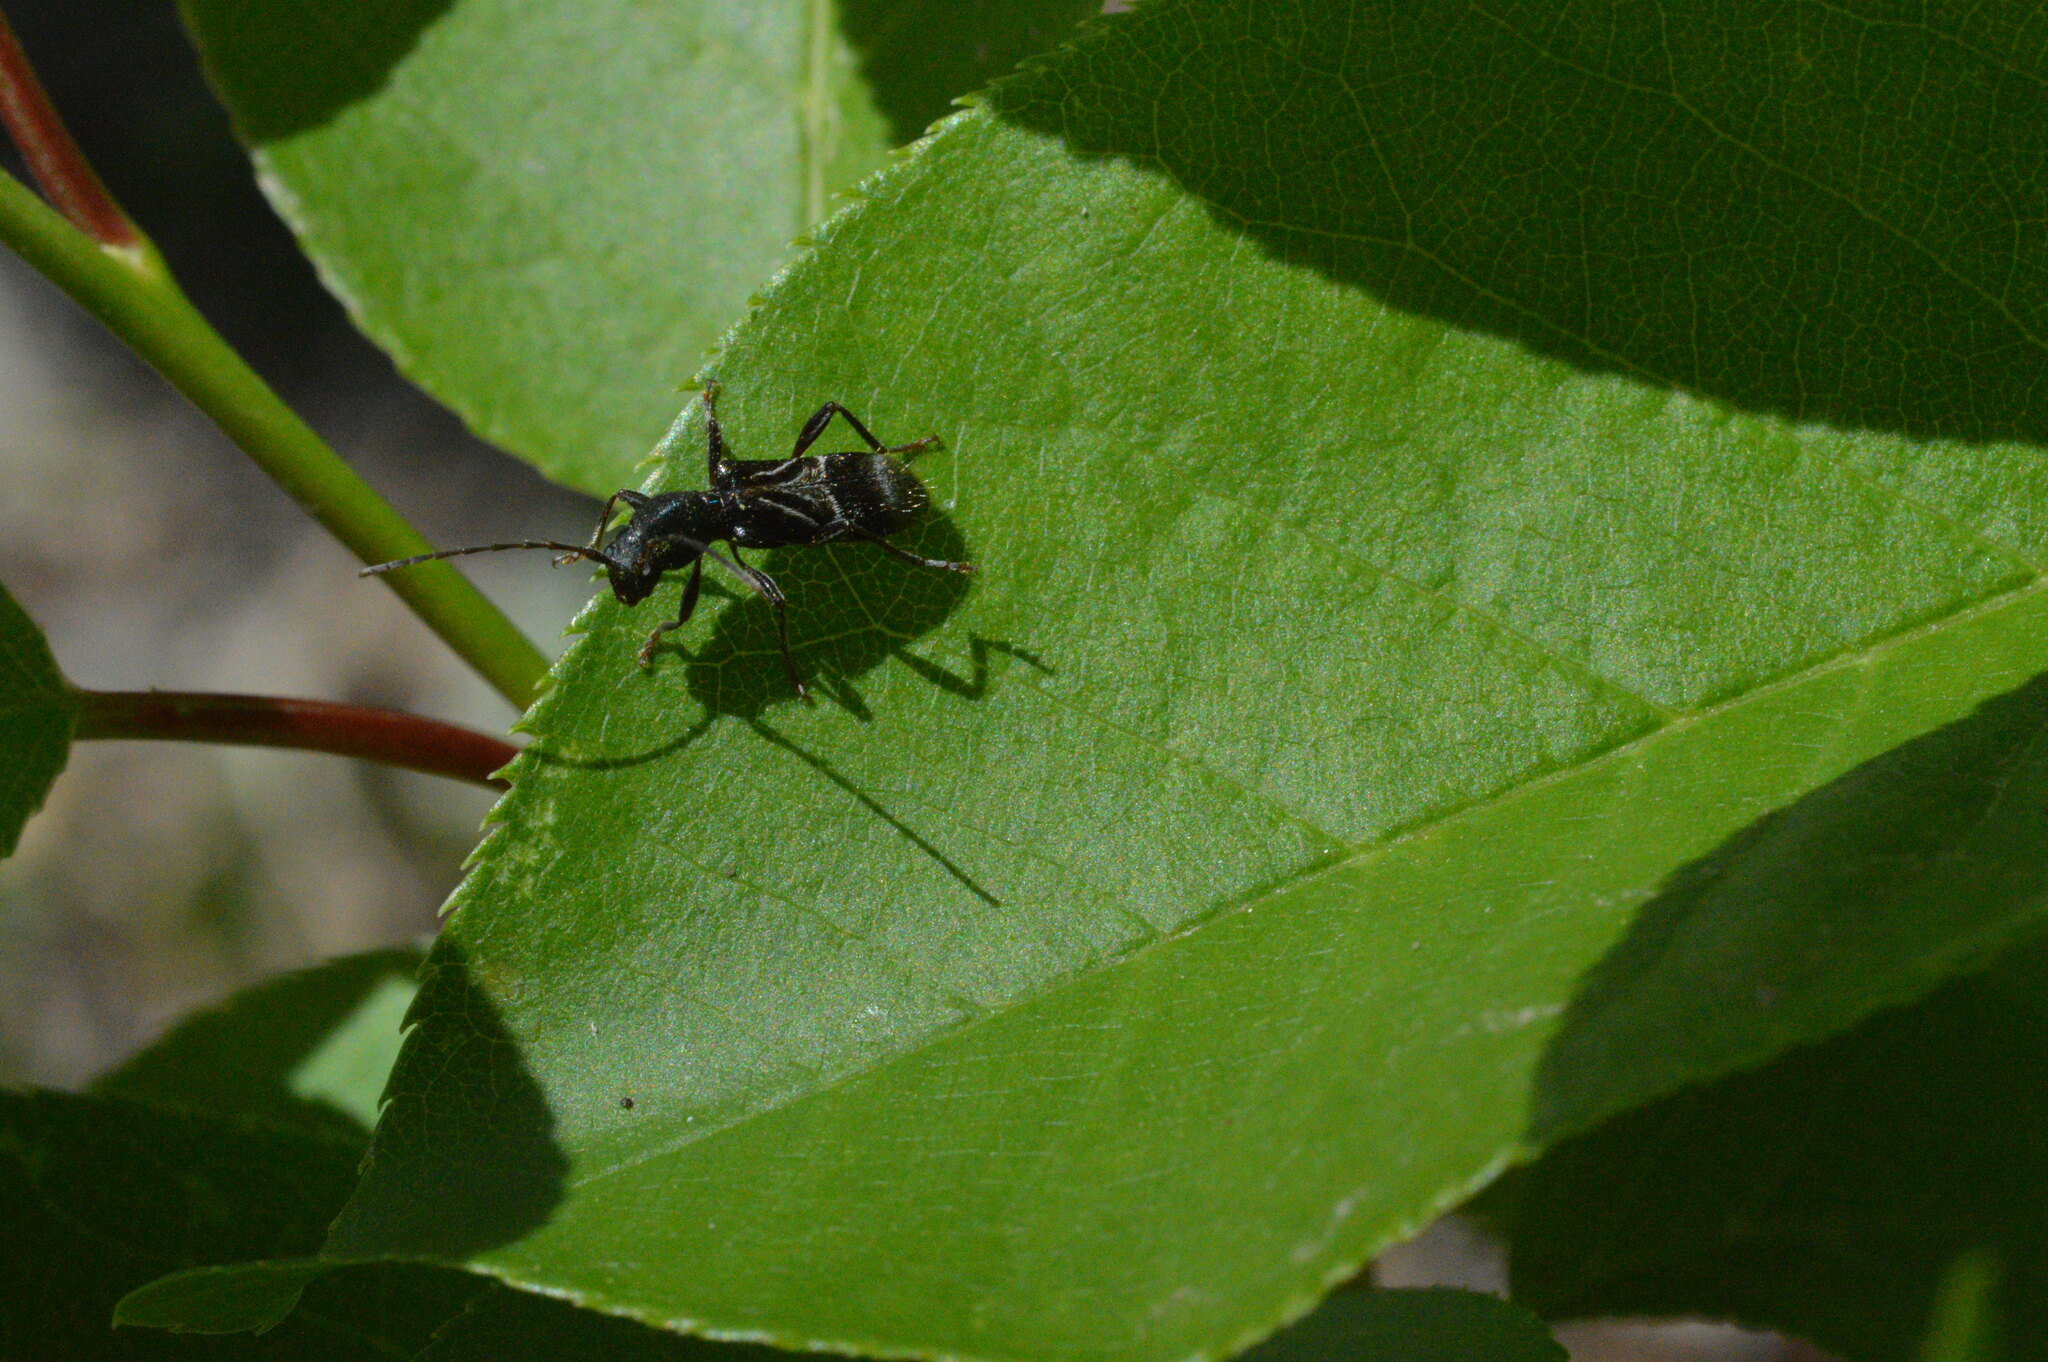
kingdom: Animalia
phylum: Arthropoda
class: Insecta
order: Coleoptera
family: Cerambycidae
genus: Cyrtophorus
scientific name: Cyrtophorus verrucosus
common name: Ant-like longhorn beetle
